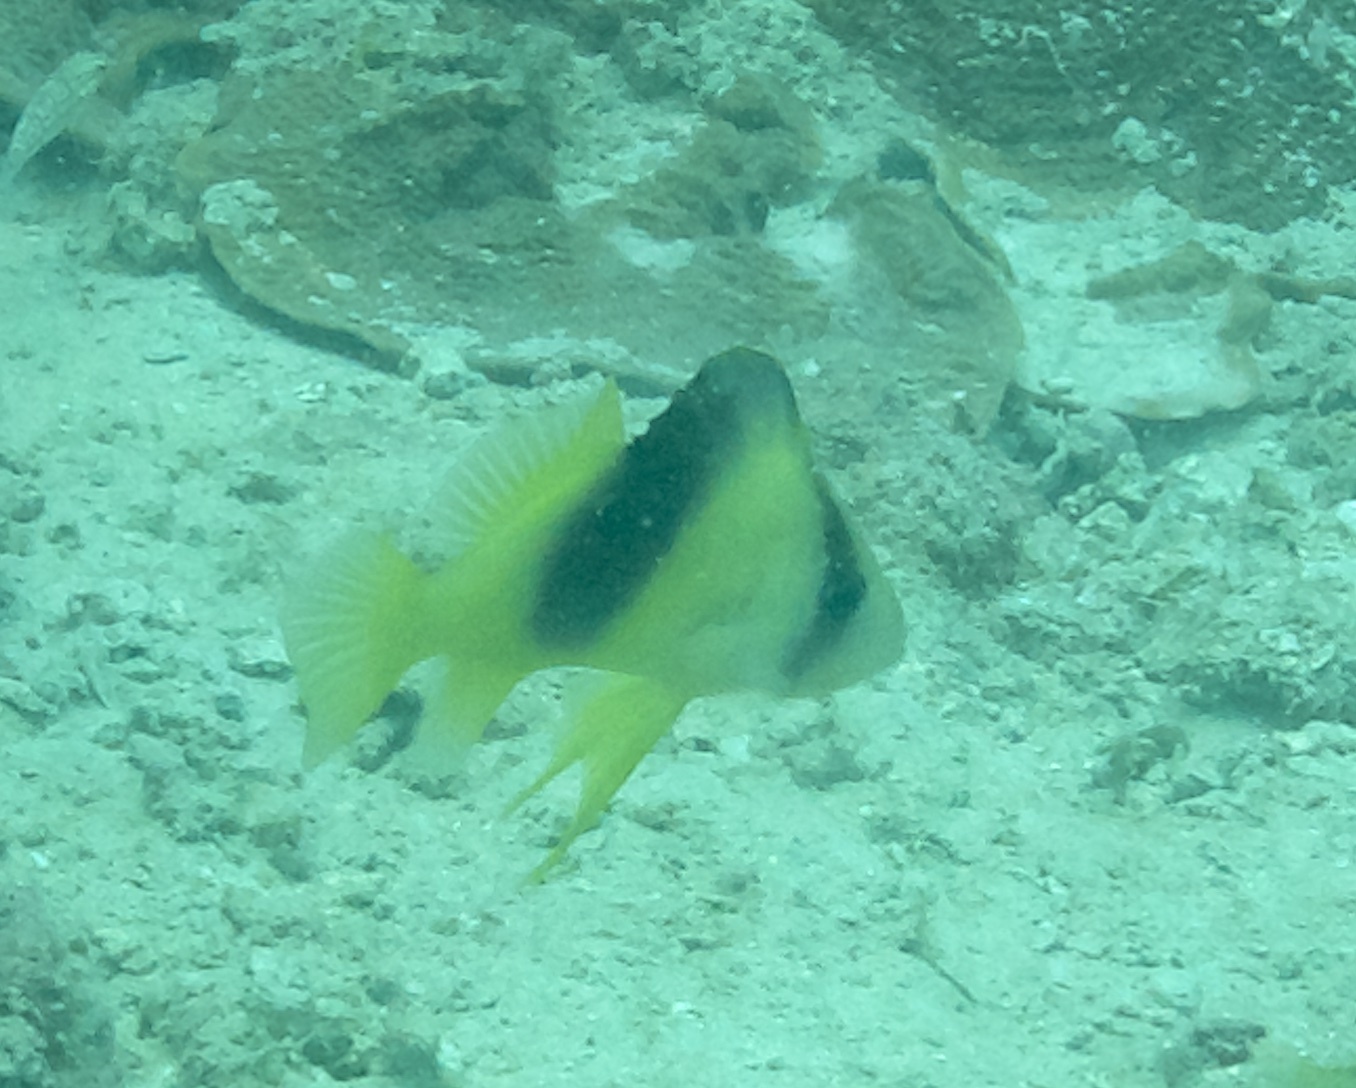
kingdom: Animalia
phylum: Chordata
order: Perciformes
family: Serranidae
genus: Diploprion
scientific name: Diploprion bifasciatum
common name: Barred soapfish
